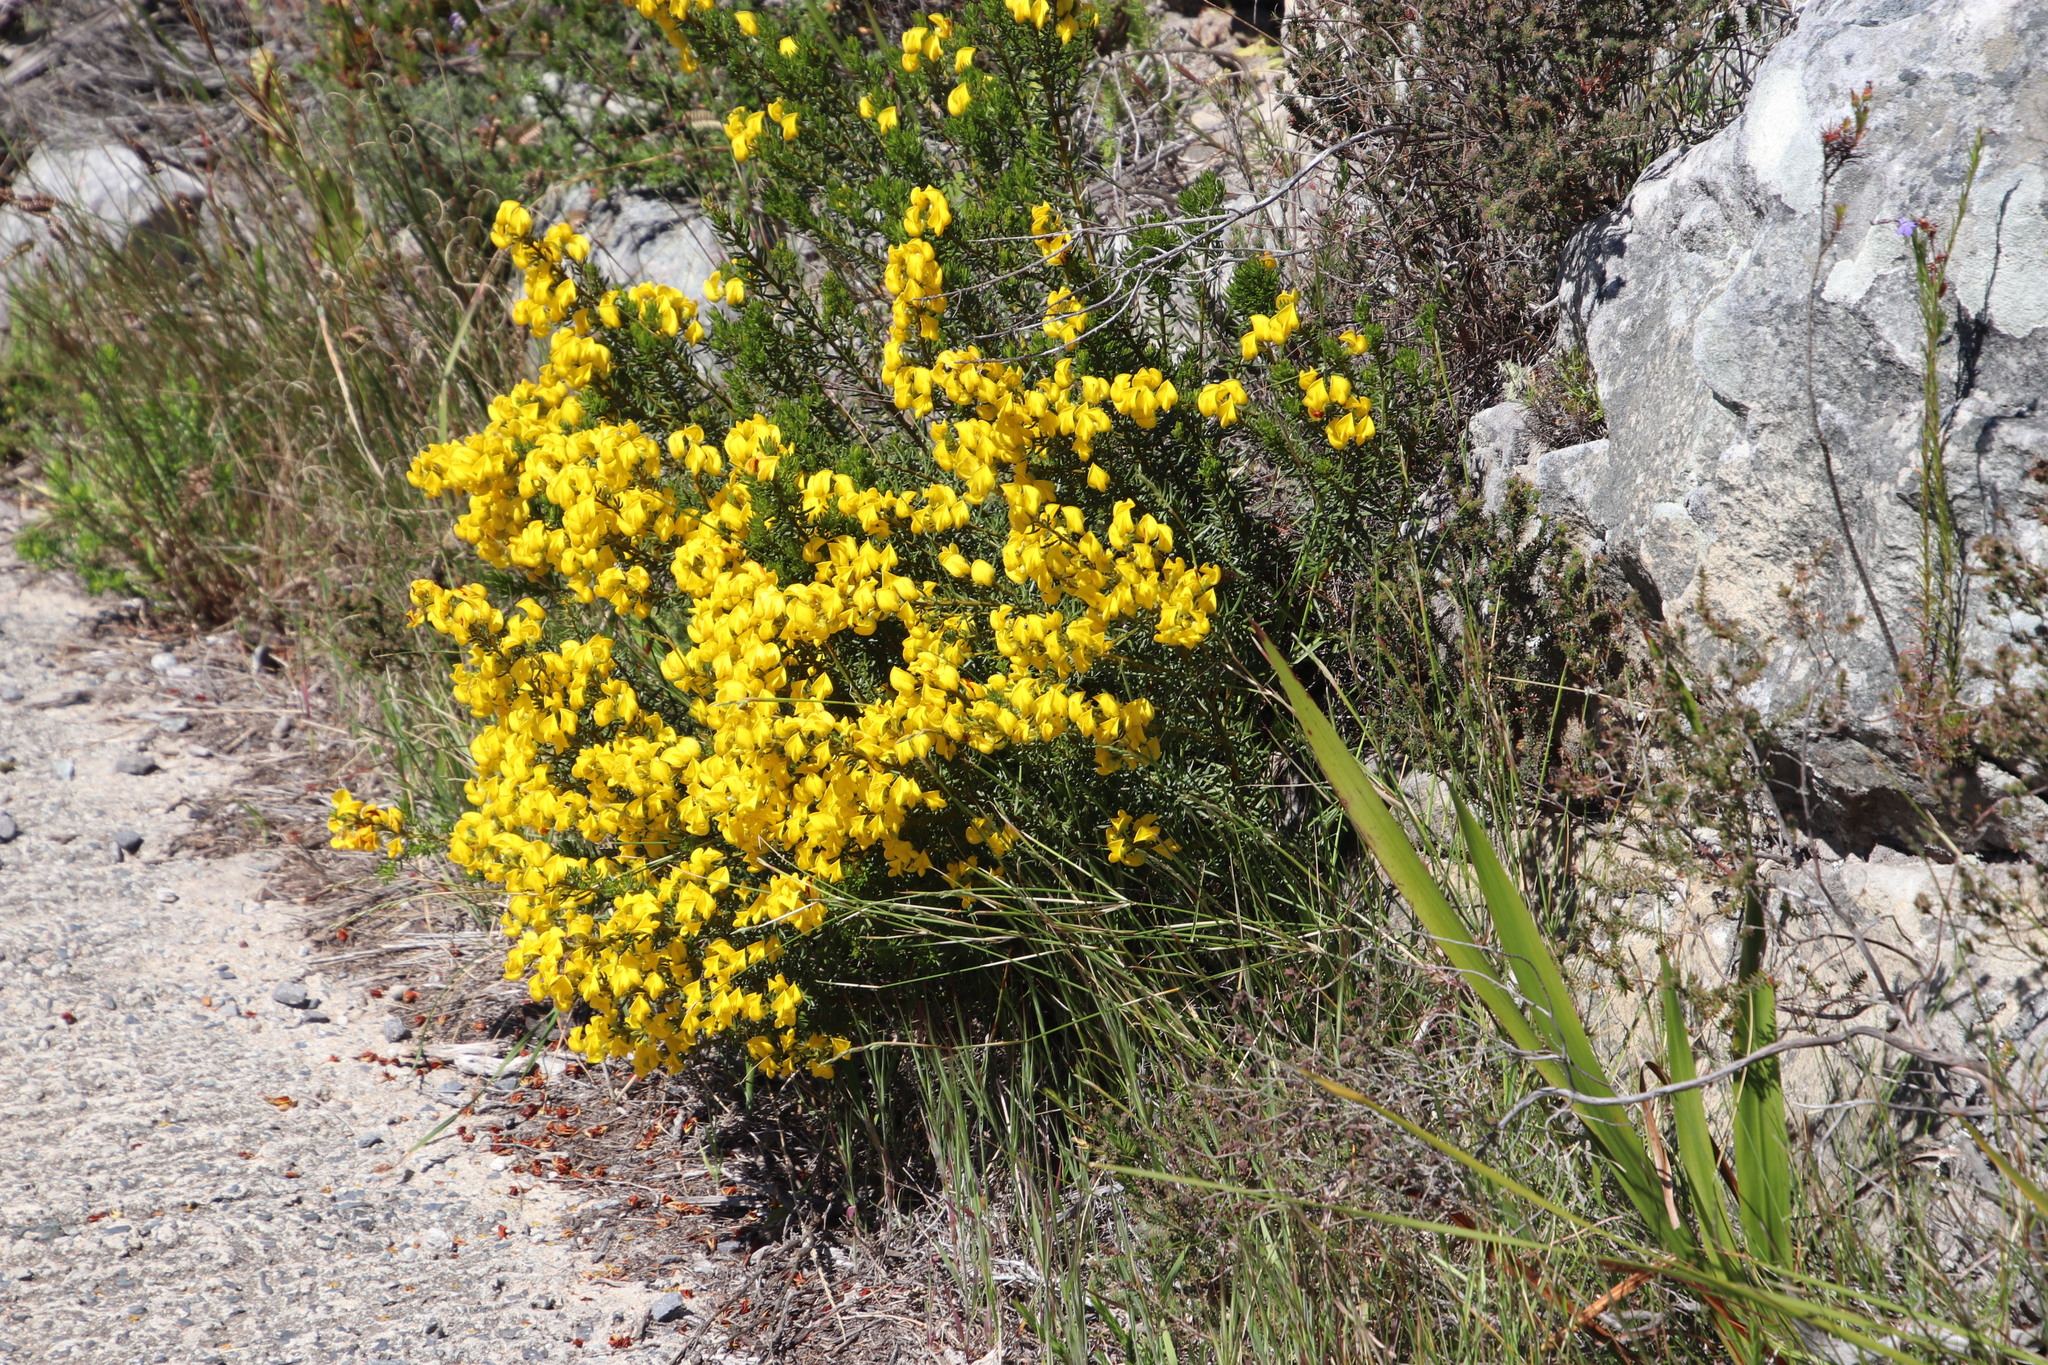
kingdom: Plantae
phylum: Tracheophyta
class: Magnoliopsida
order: Fabales
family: Fabaceae
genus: Cyclopia
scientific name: Cyclopia genistoides
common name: Honeybush tea
